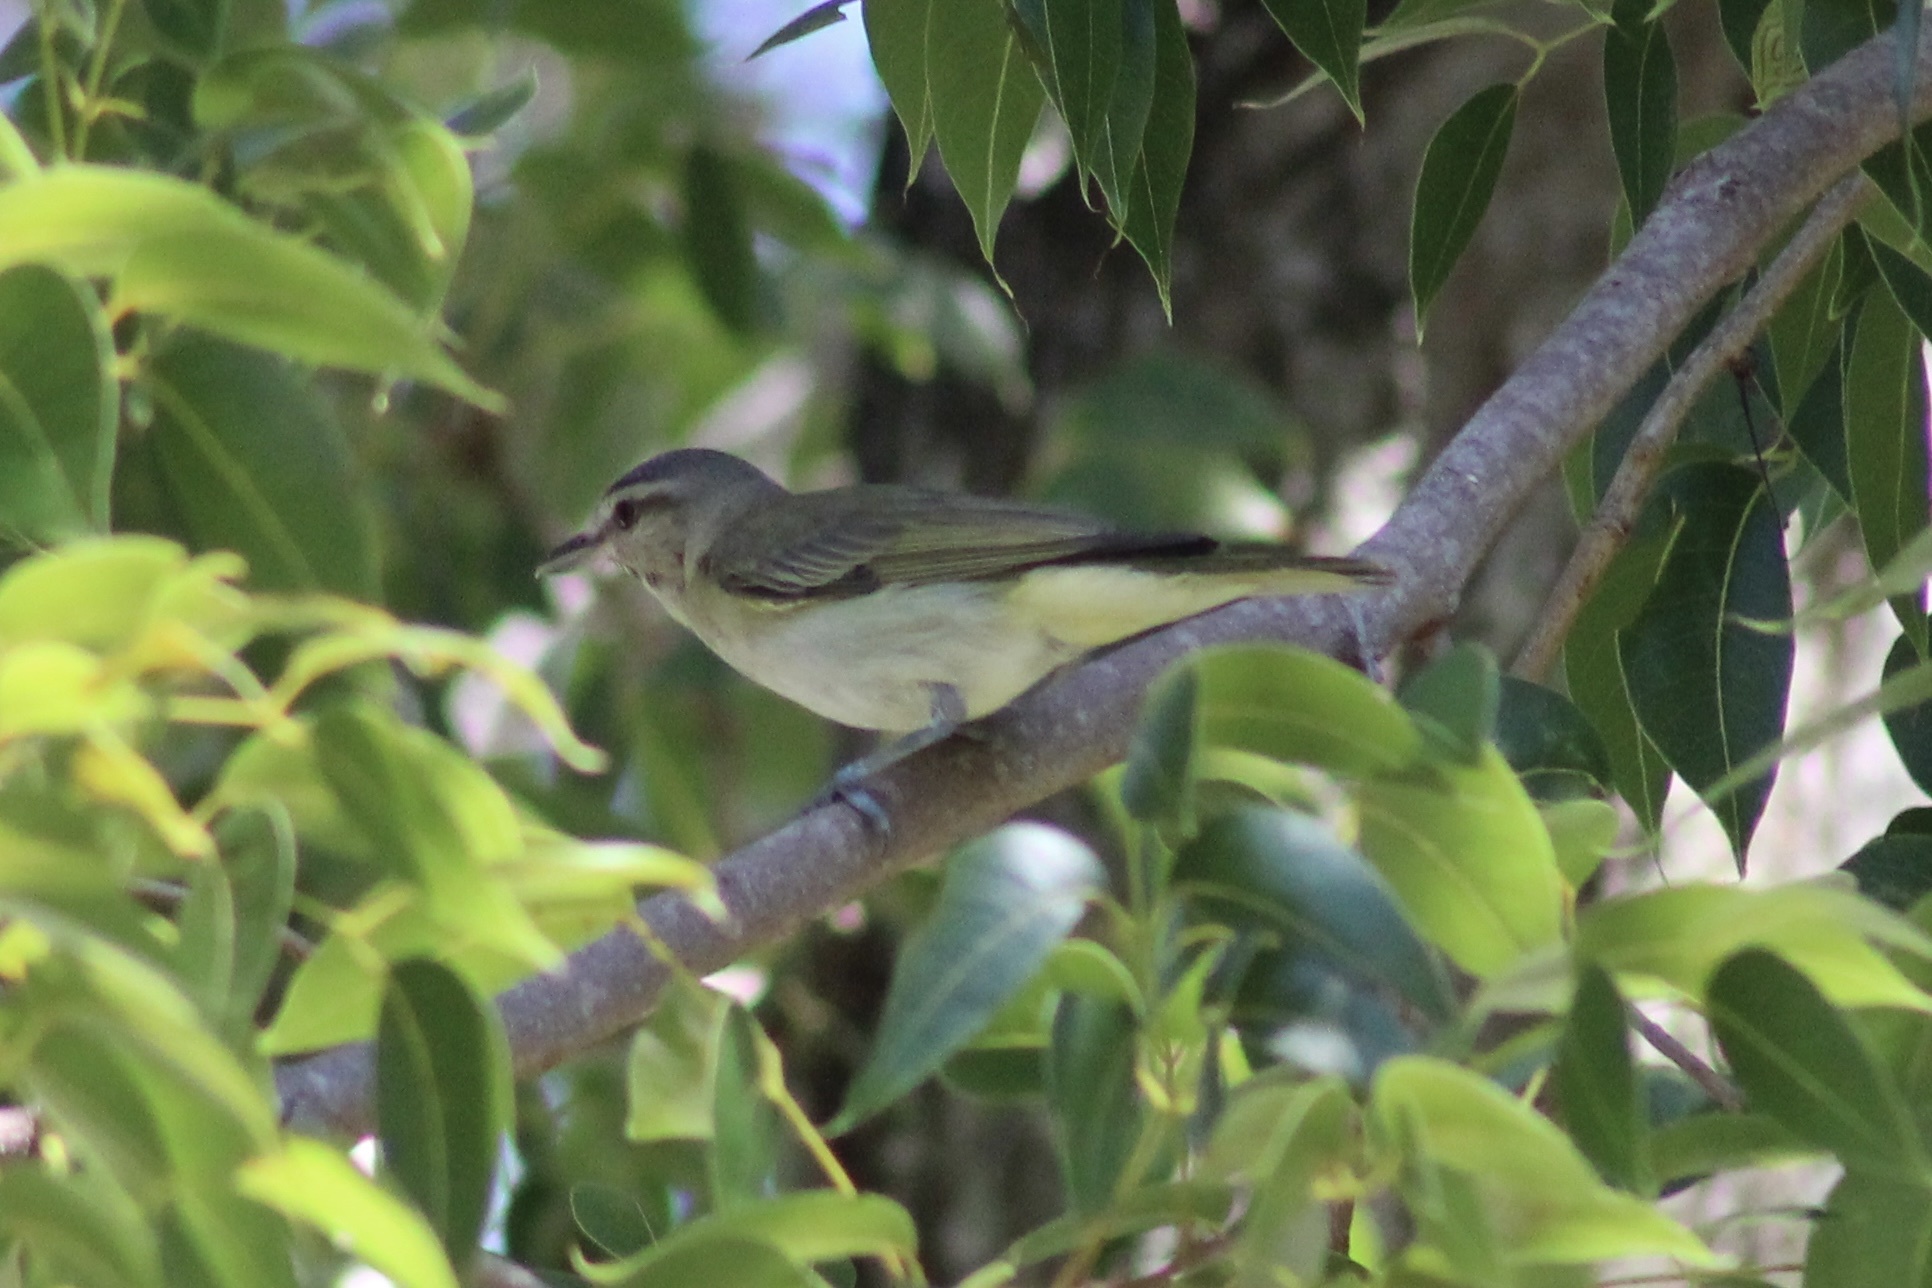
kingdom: Animalia
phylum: Chordata
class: Aves
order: Passeriformes
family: Vireonidae
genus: Vireo
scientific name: Vireo altiloquus
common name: Black-whiskered vireo
